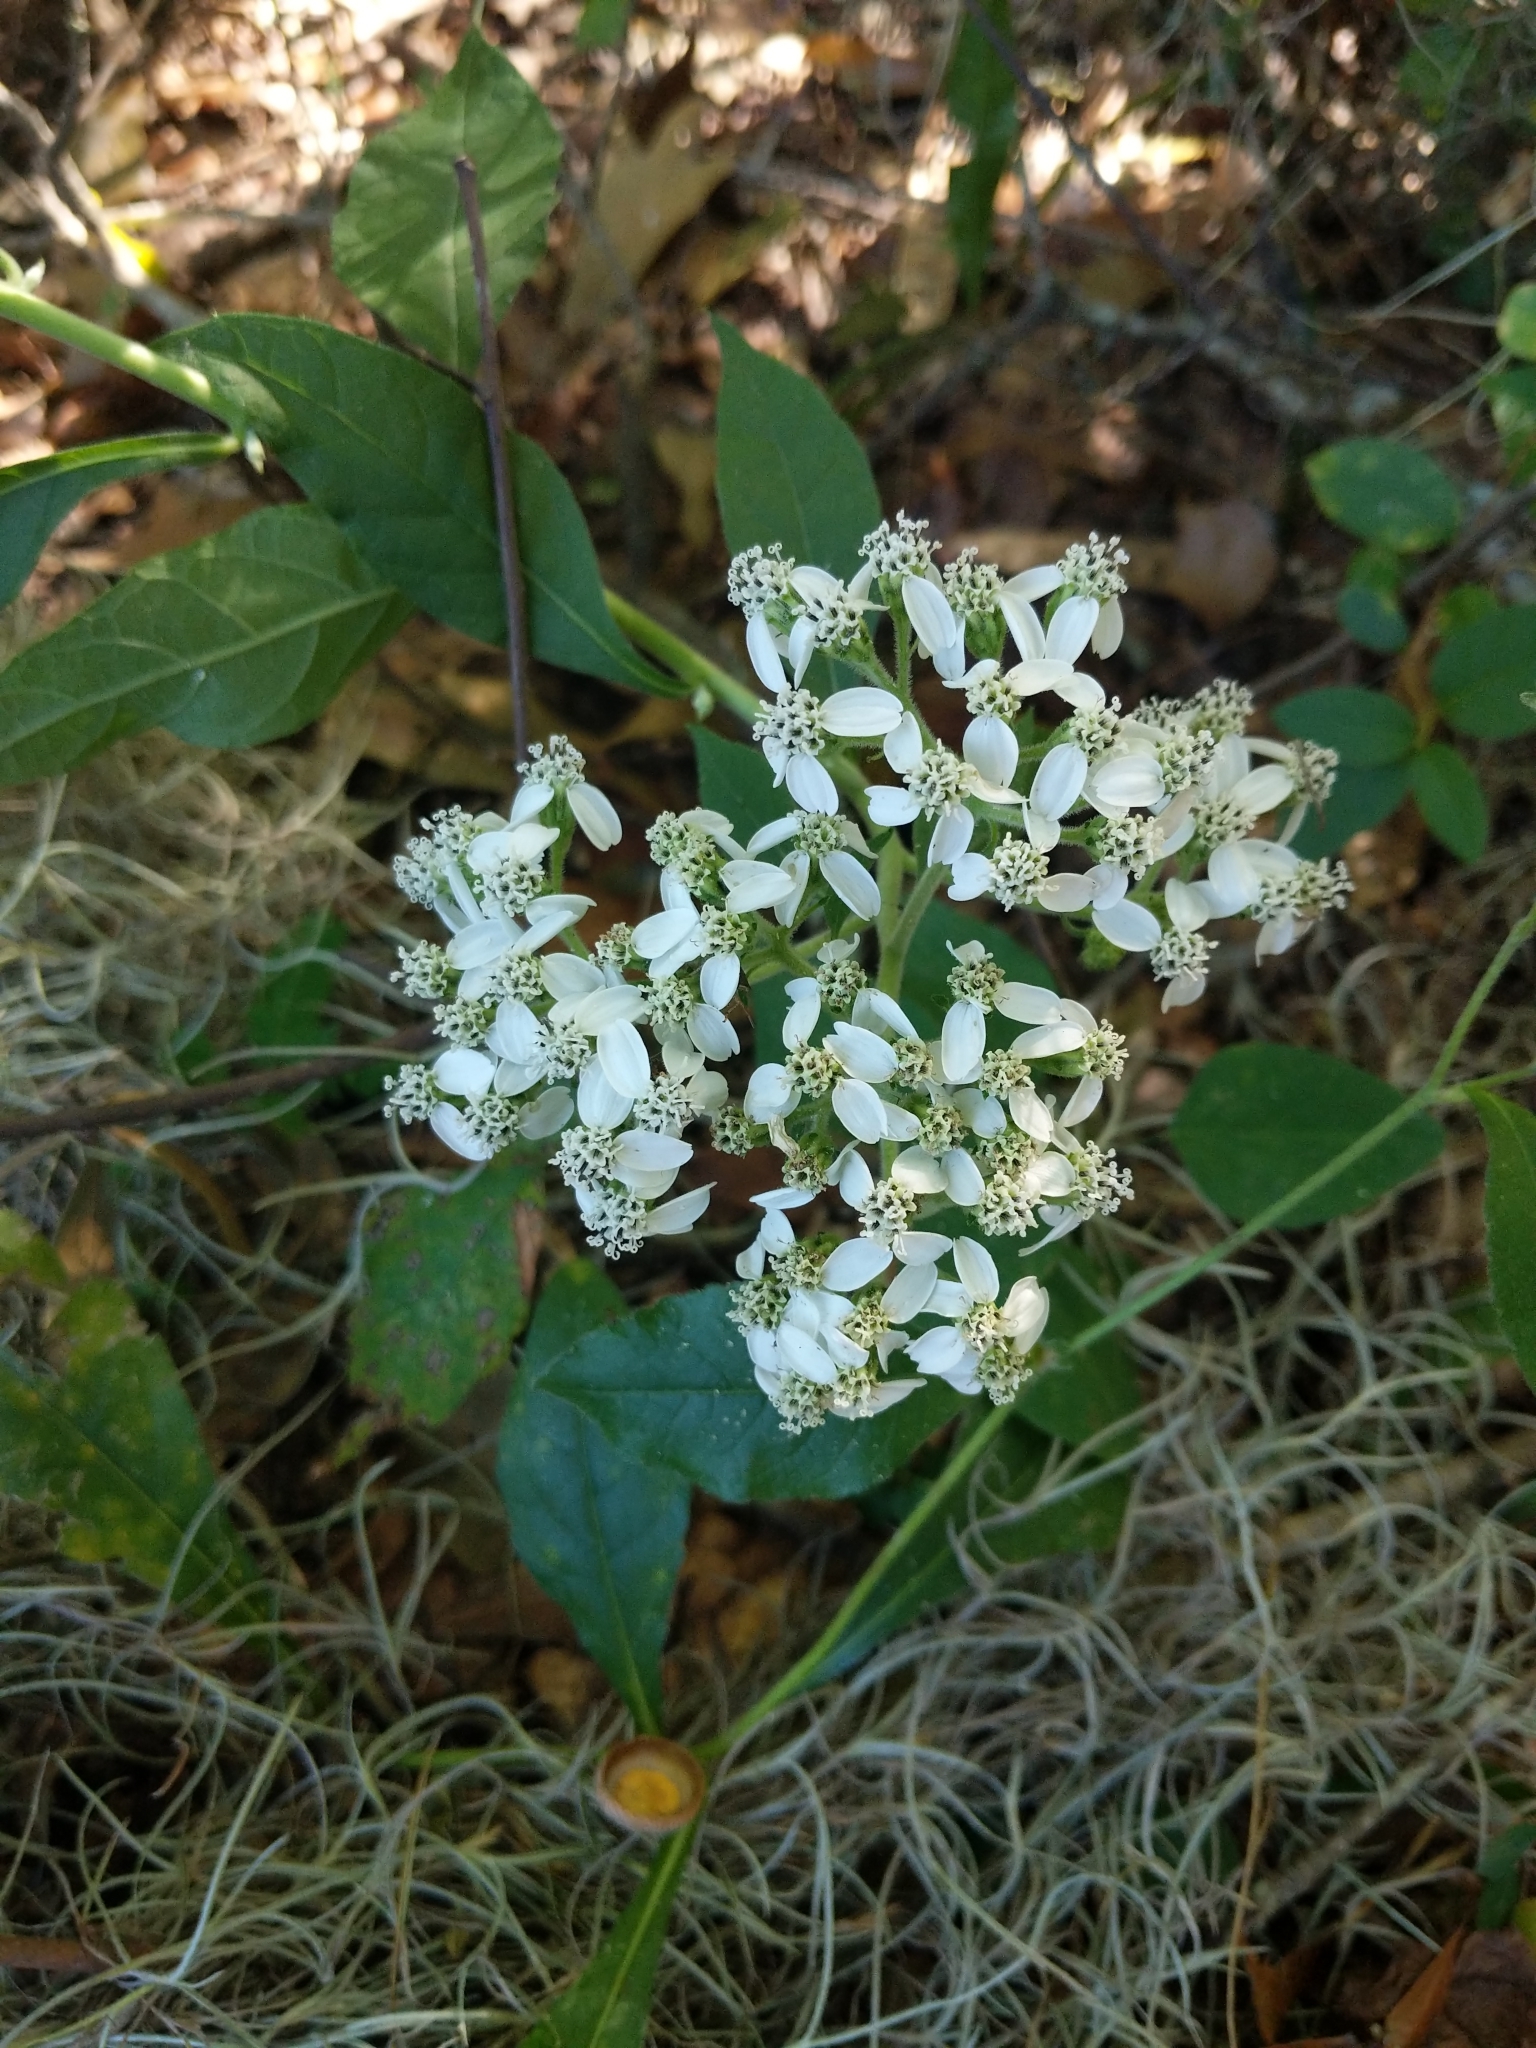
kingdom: Plantae
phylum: Tracheophyta
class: Magnoliopsida
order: Asterales
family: Asteraceae
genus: Verbesina
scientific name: Verbesina virginica
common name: Frostweed
